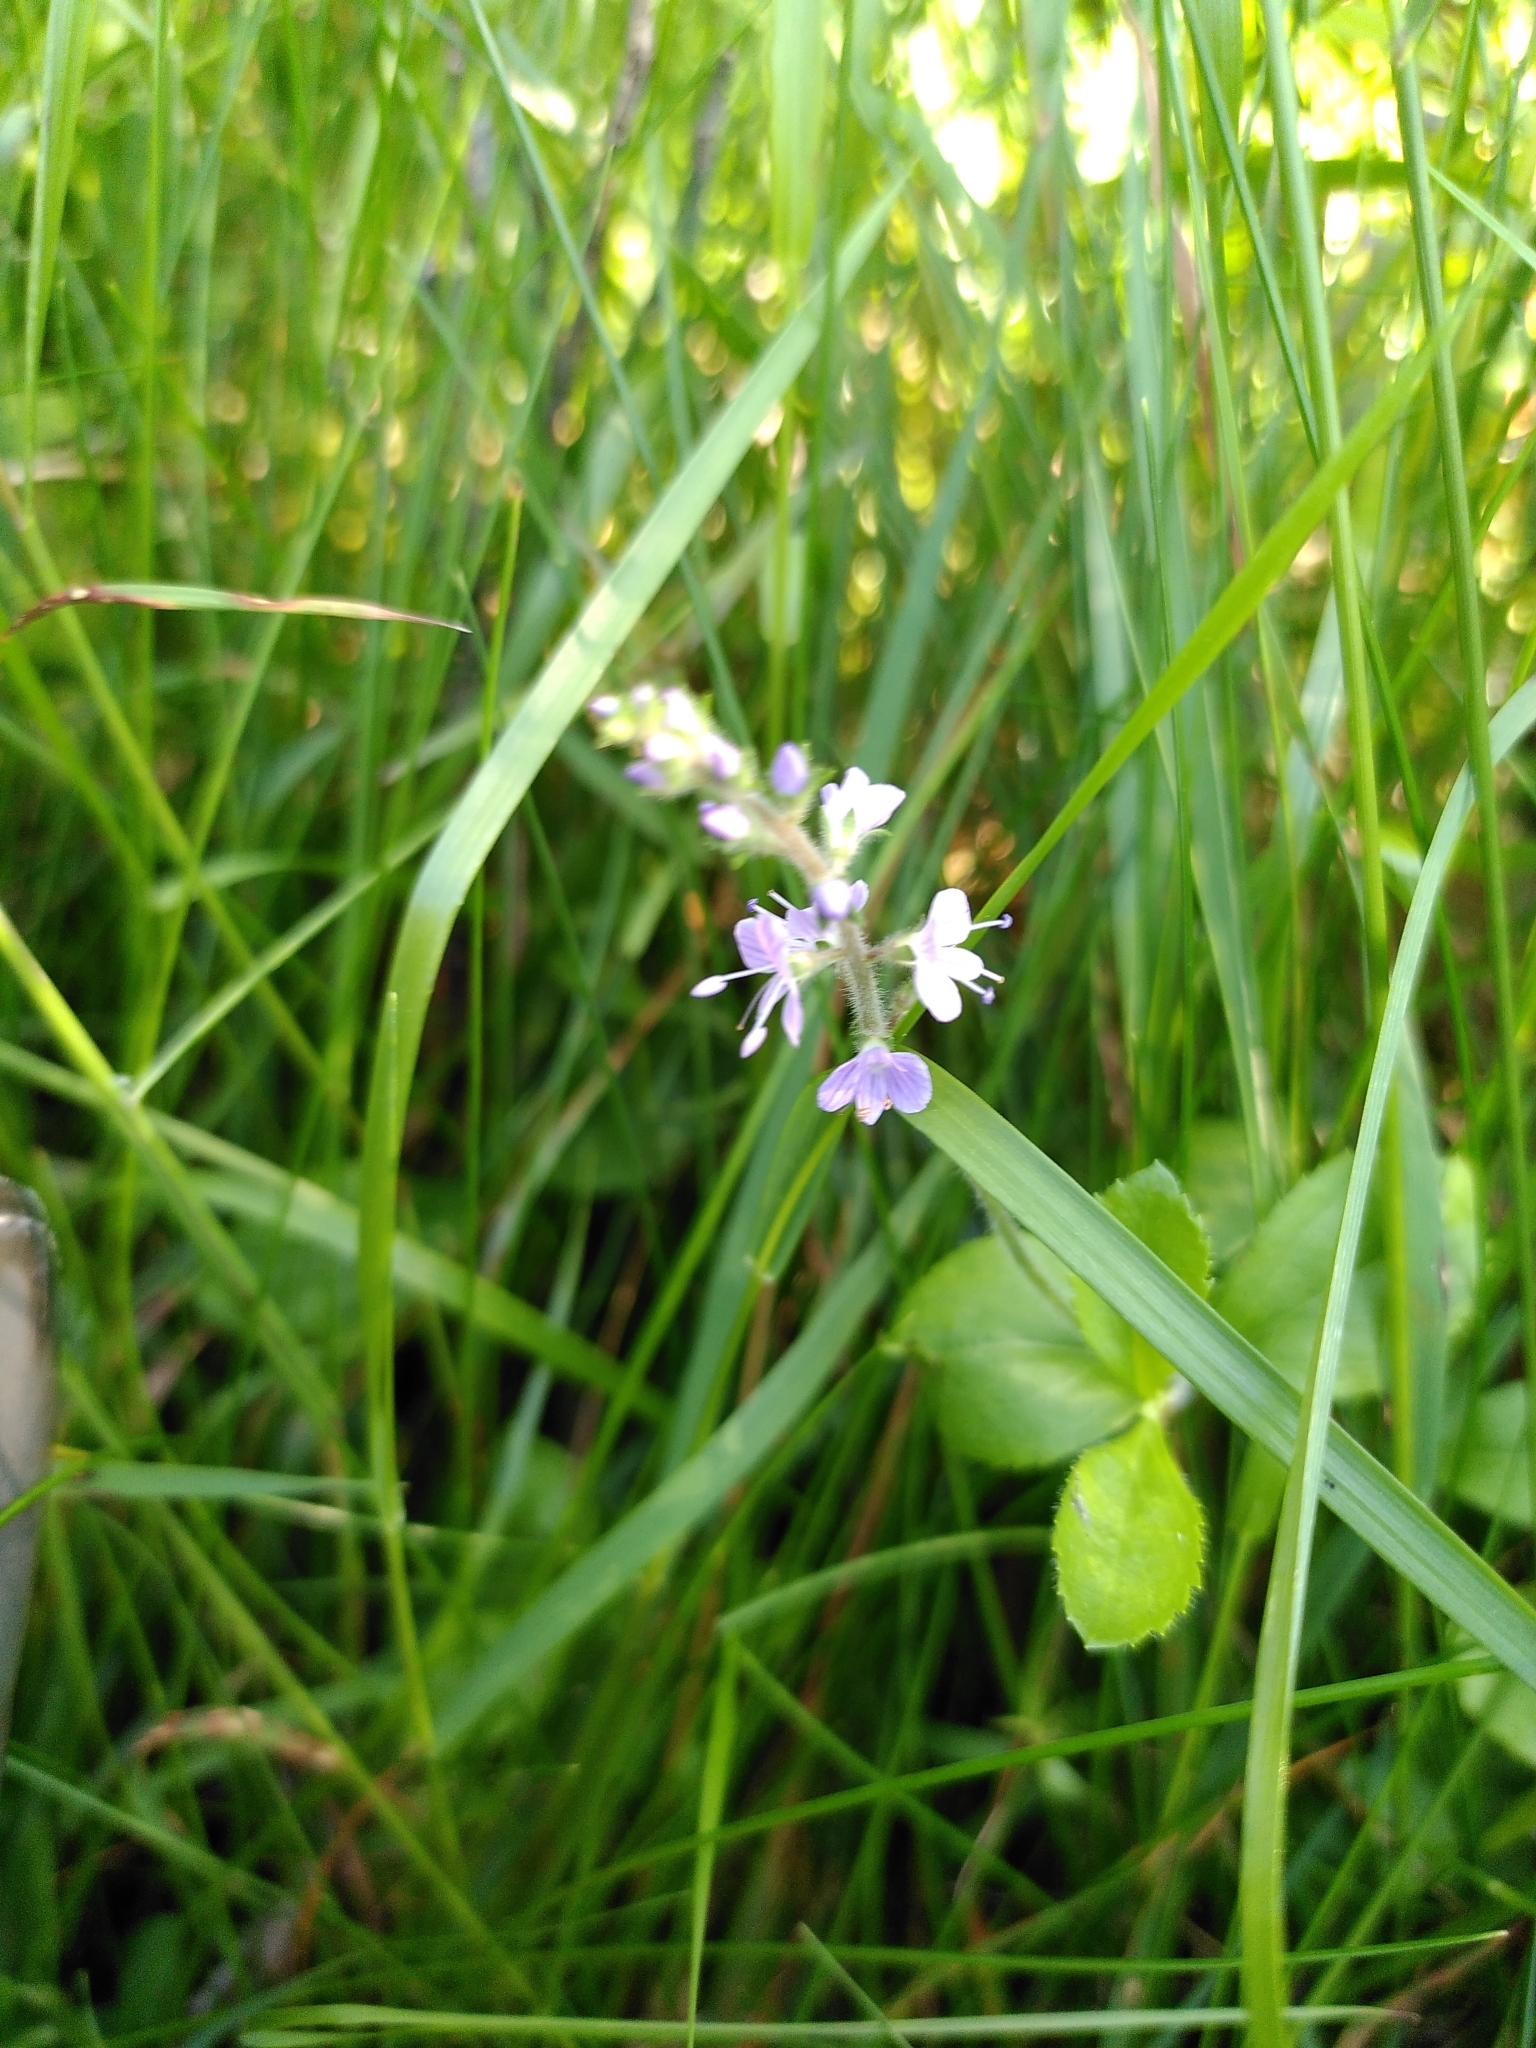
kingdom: Plantae
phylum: Tracheophyta
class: Magnoliopsida
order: Lamiales
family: Plantaginaceae
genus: Veronica
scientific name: Veronica officinalis
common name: Common speedwell
